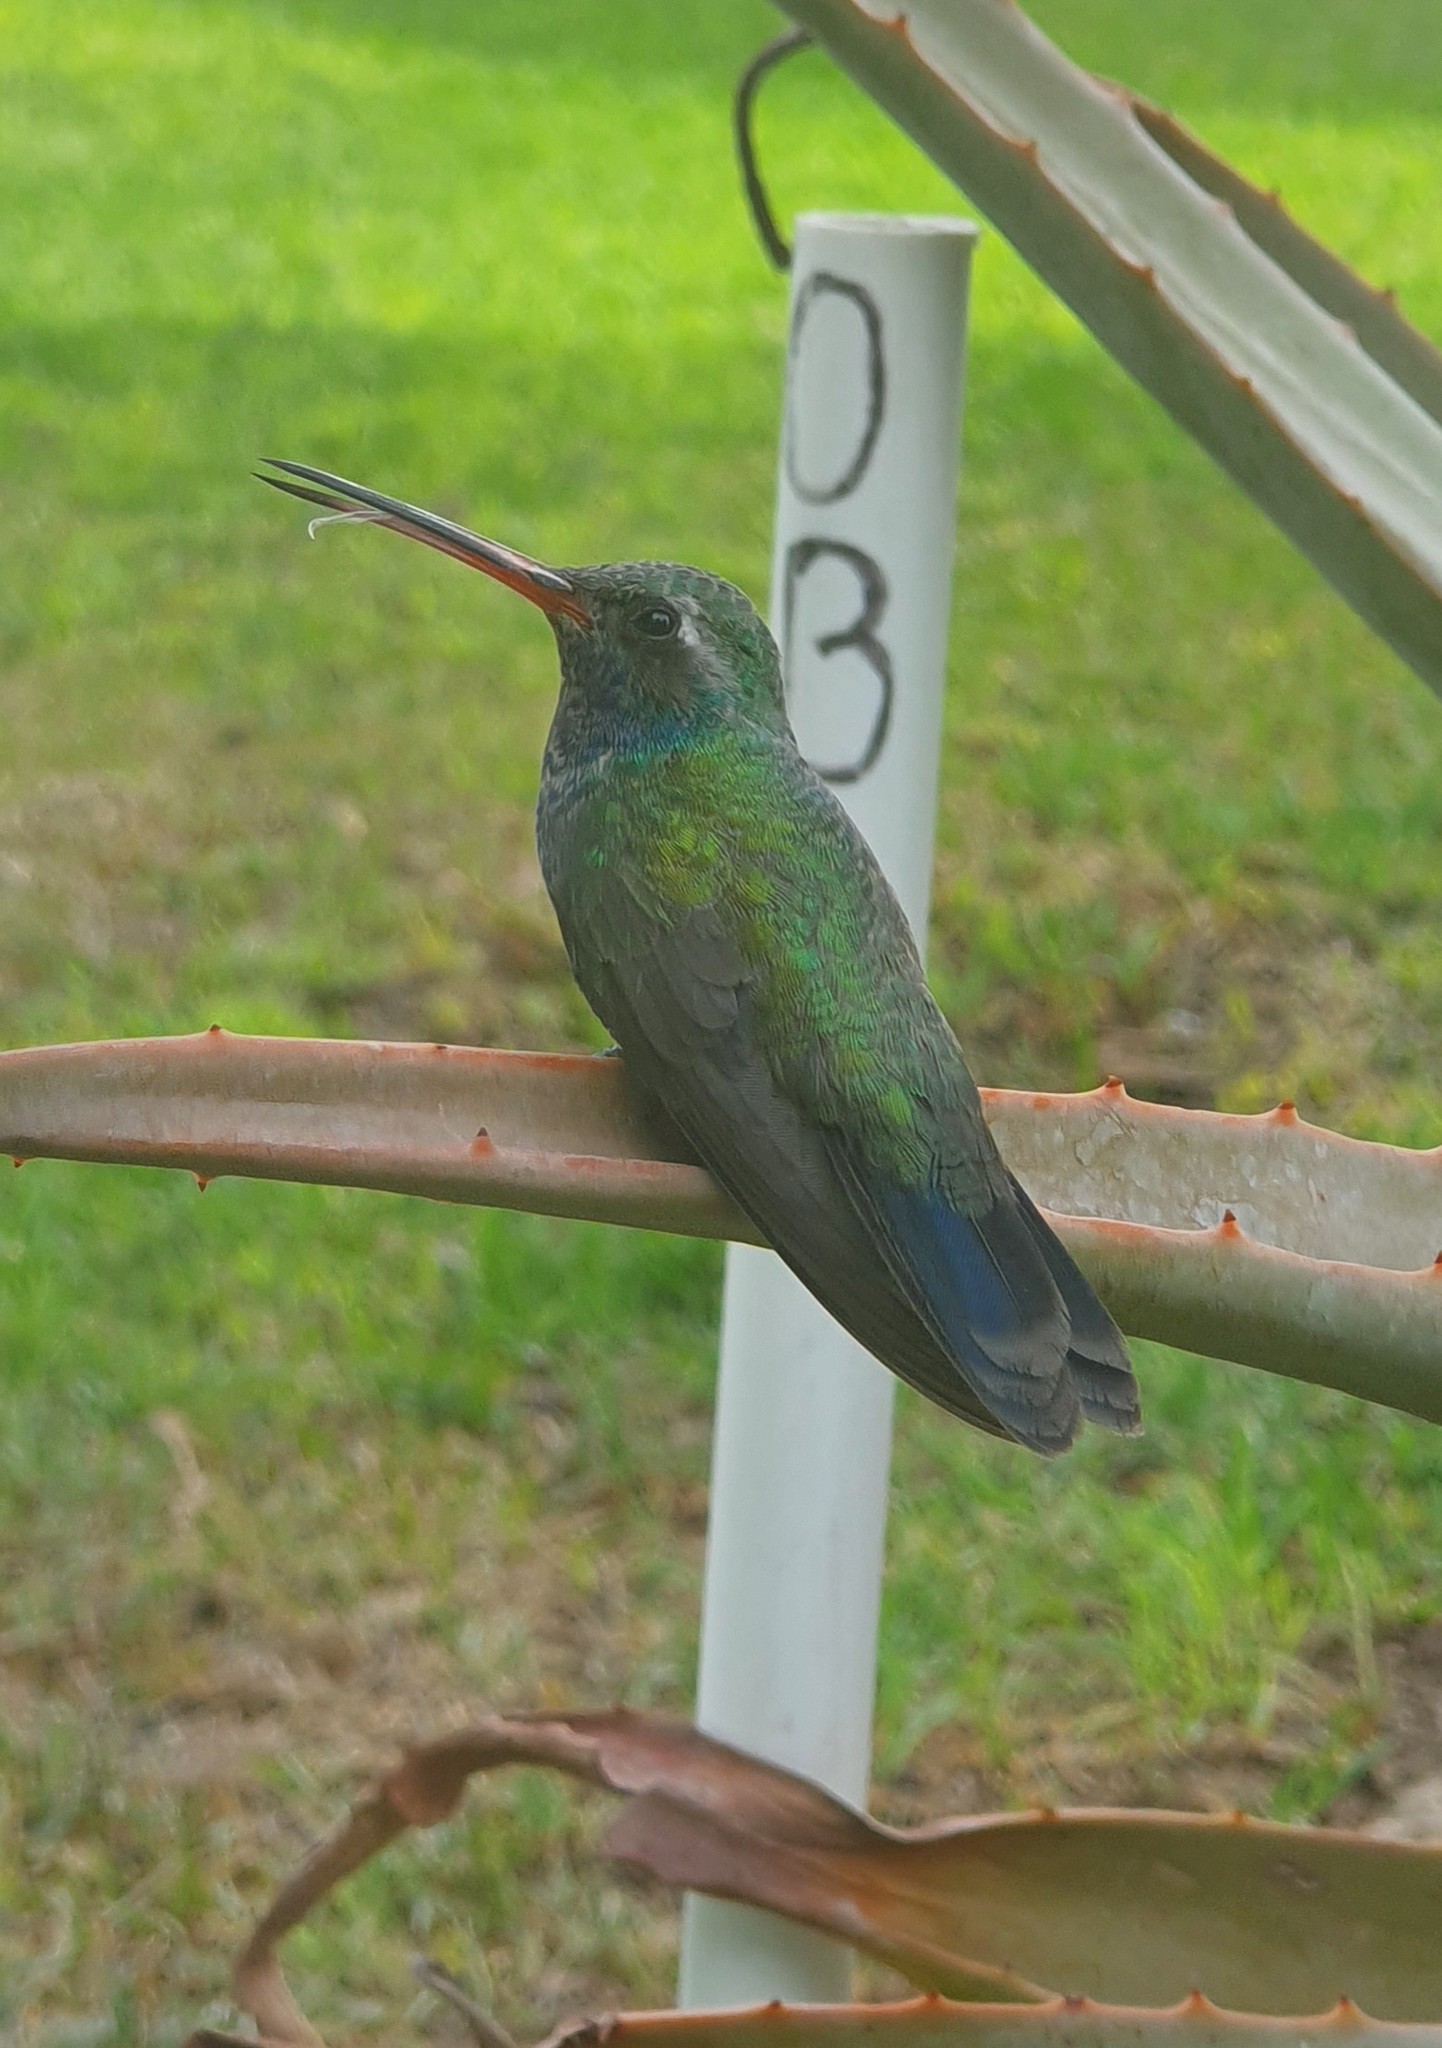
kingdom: Animalia
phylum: Chordata
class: Aves
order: Apodiformes
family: Trochilidae
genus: Cynanthus
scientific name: Cynanthus latirostris
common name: Broad-billed hummingbird
